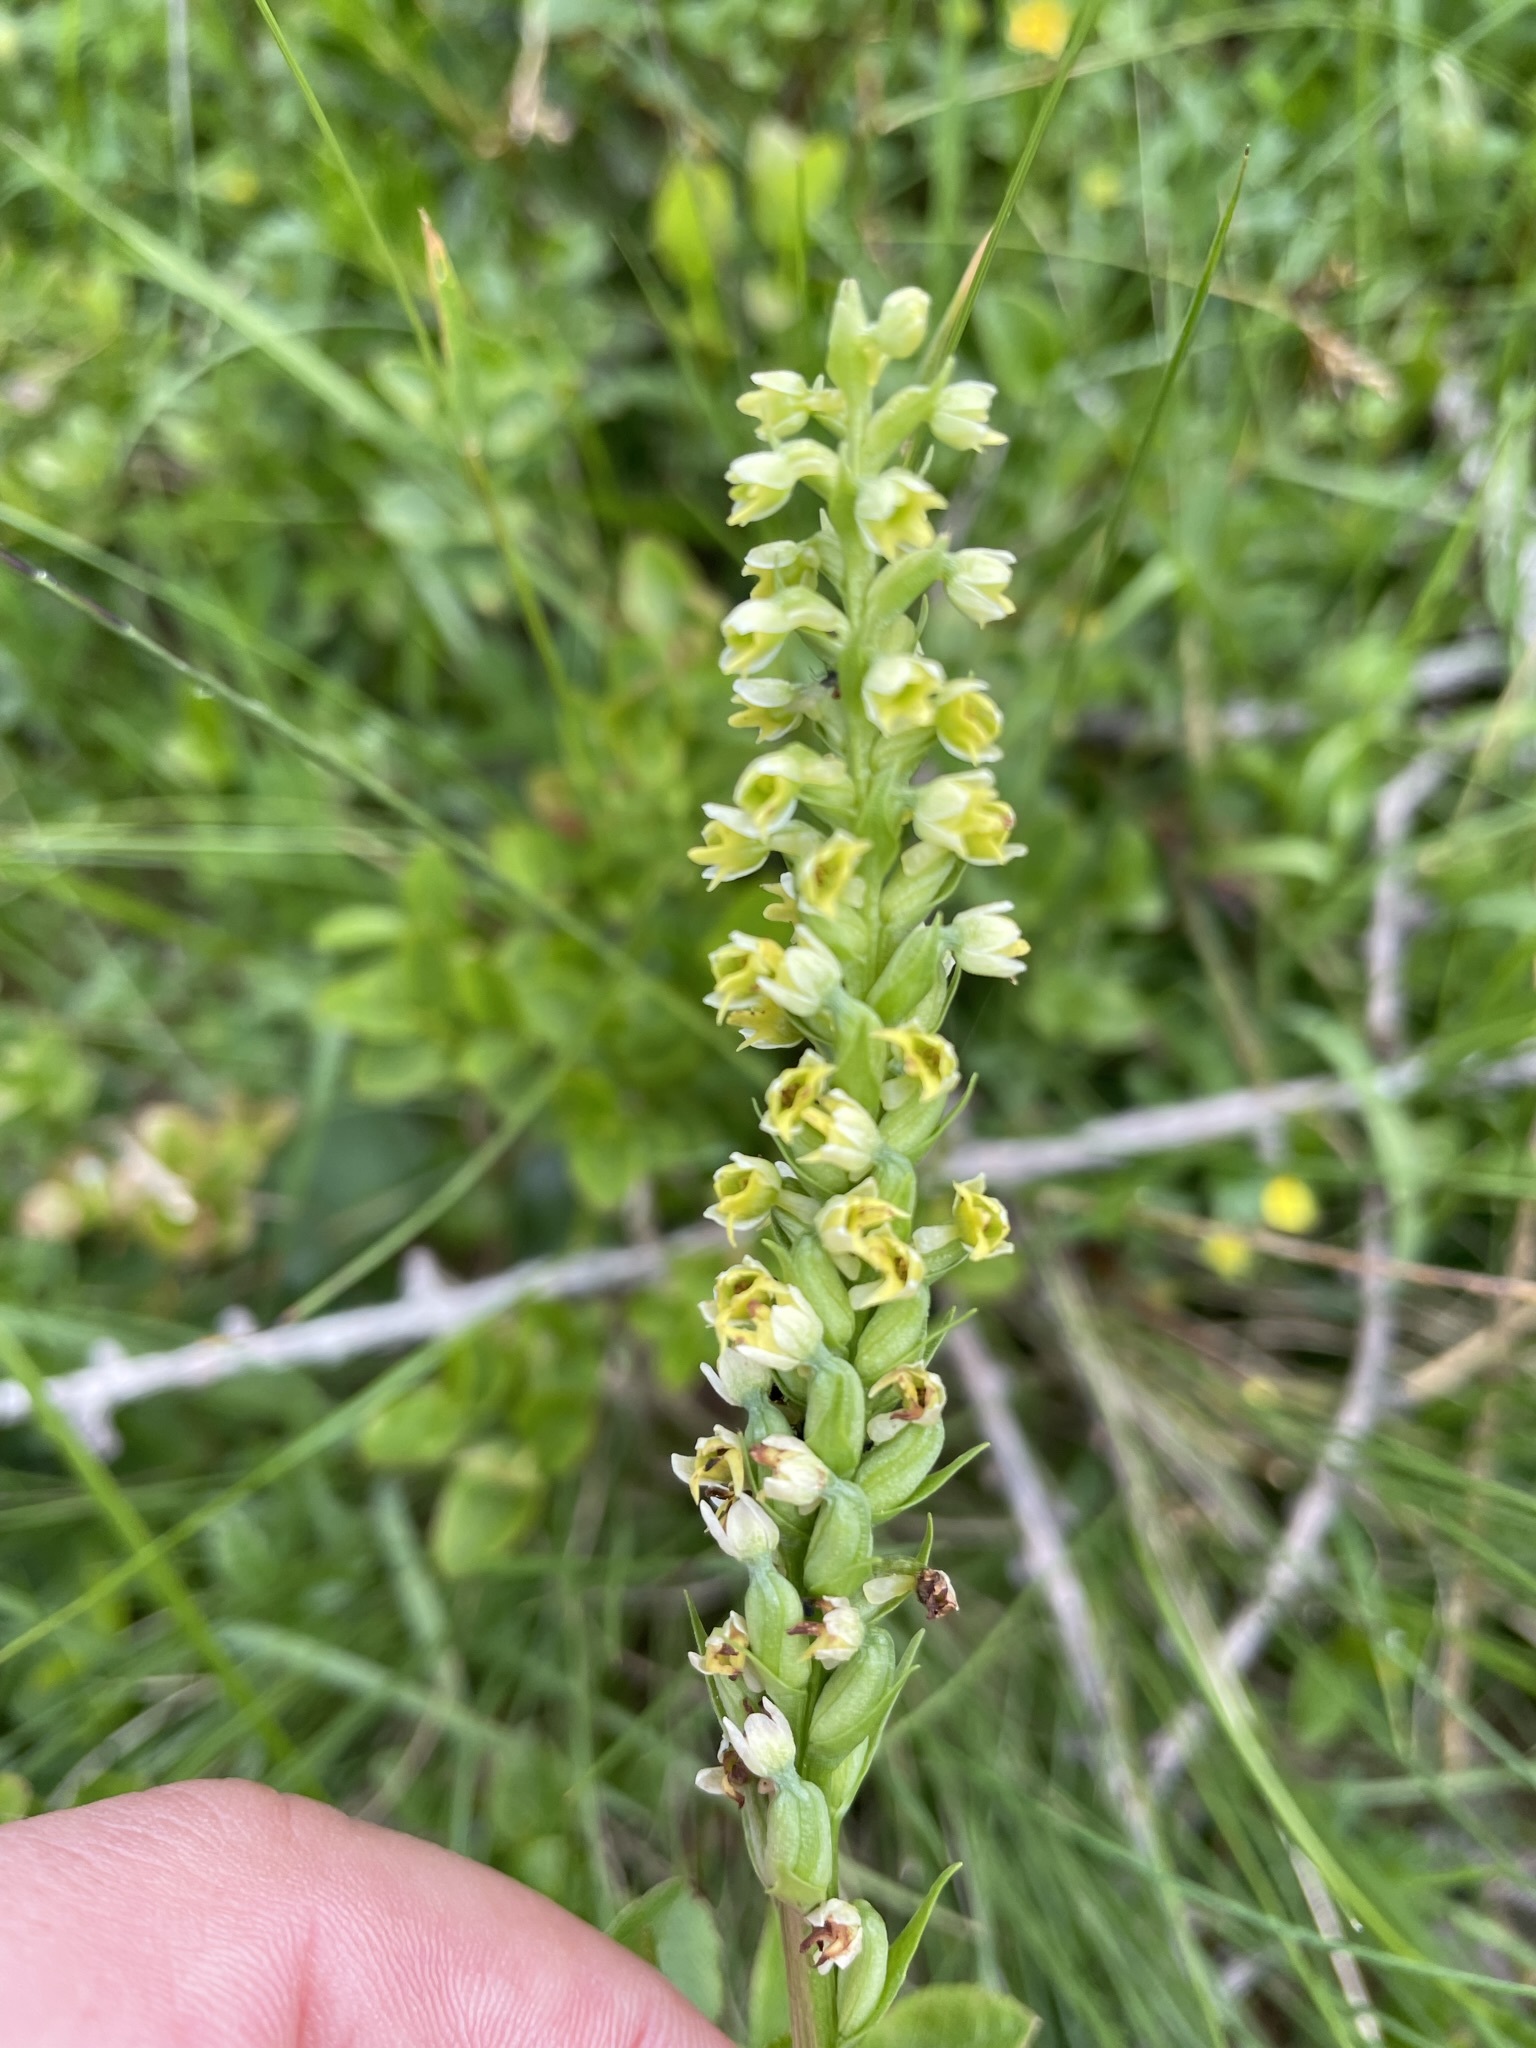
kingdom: Plantae
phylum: Tracheophyta
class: Liliopsida
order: Asparagales
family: Orchidaceae
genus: Pseudorchis
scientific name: Pseudorchis albida
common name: Small-white orchid
